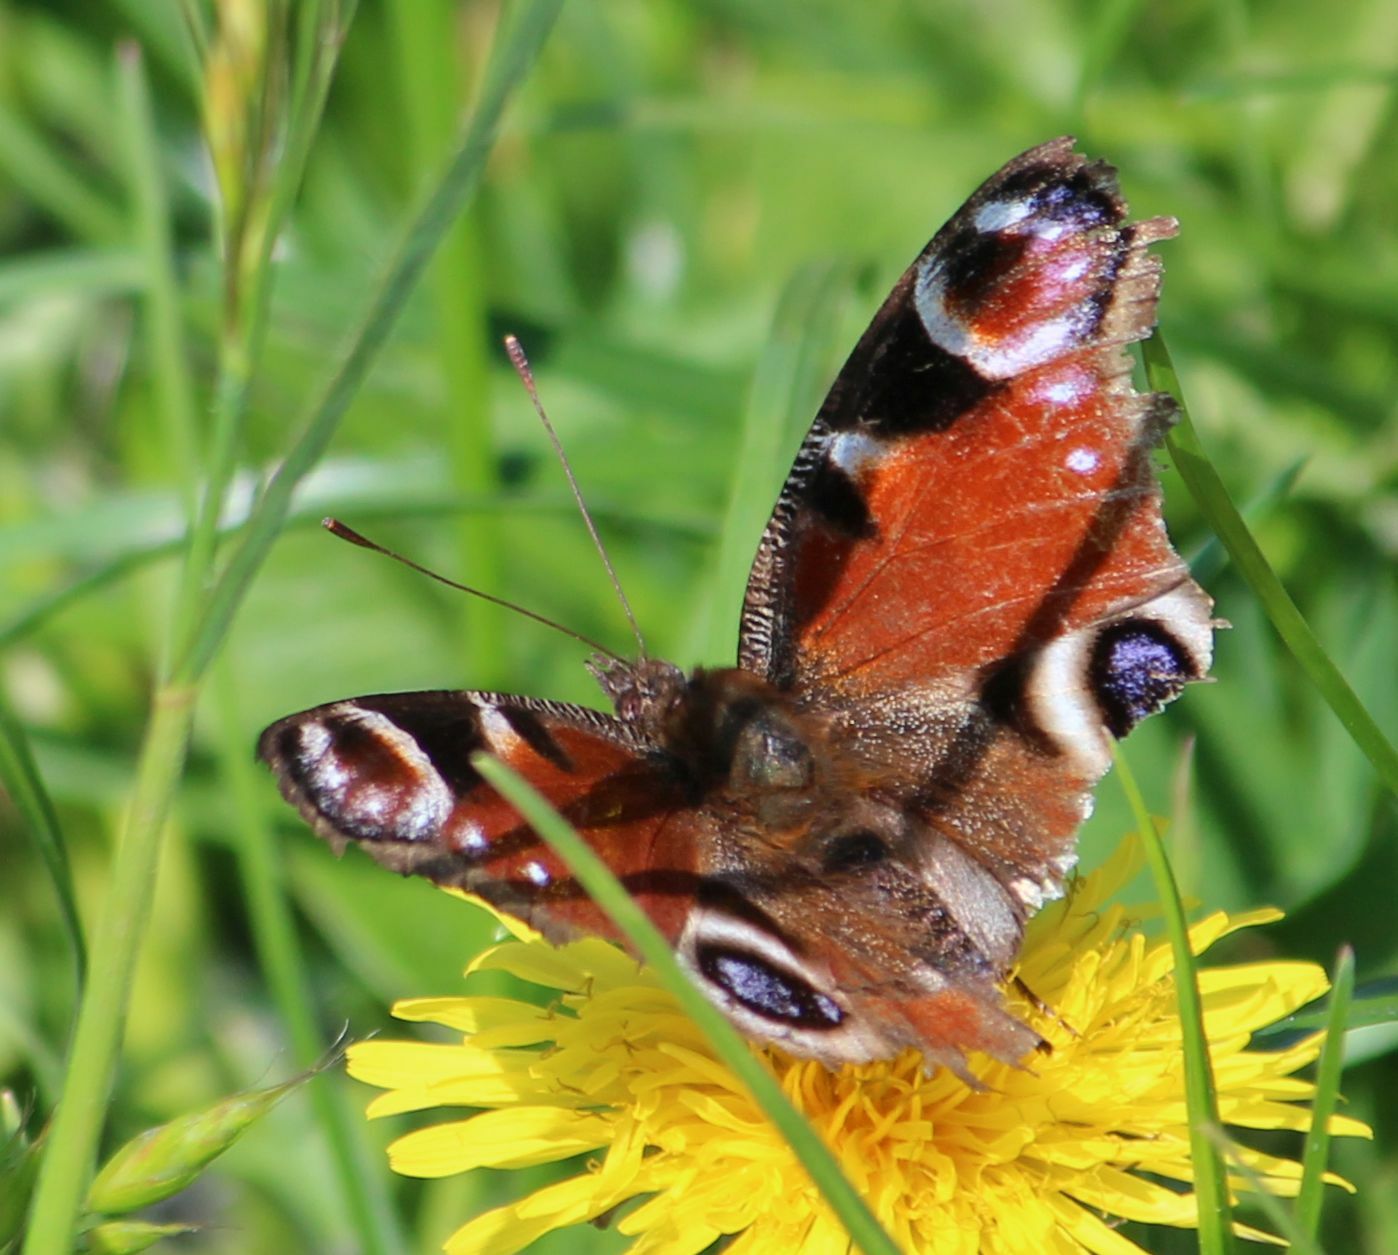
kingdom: Animalia
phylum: Arthropoda
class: Insecta
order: Lepidoptera
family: Nymphalidae
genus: Aglais
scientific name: Aglais io
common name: Peacock
